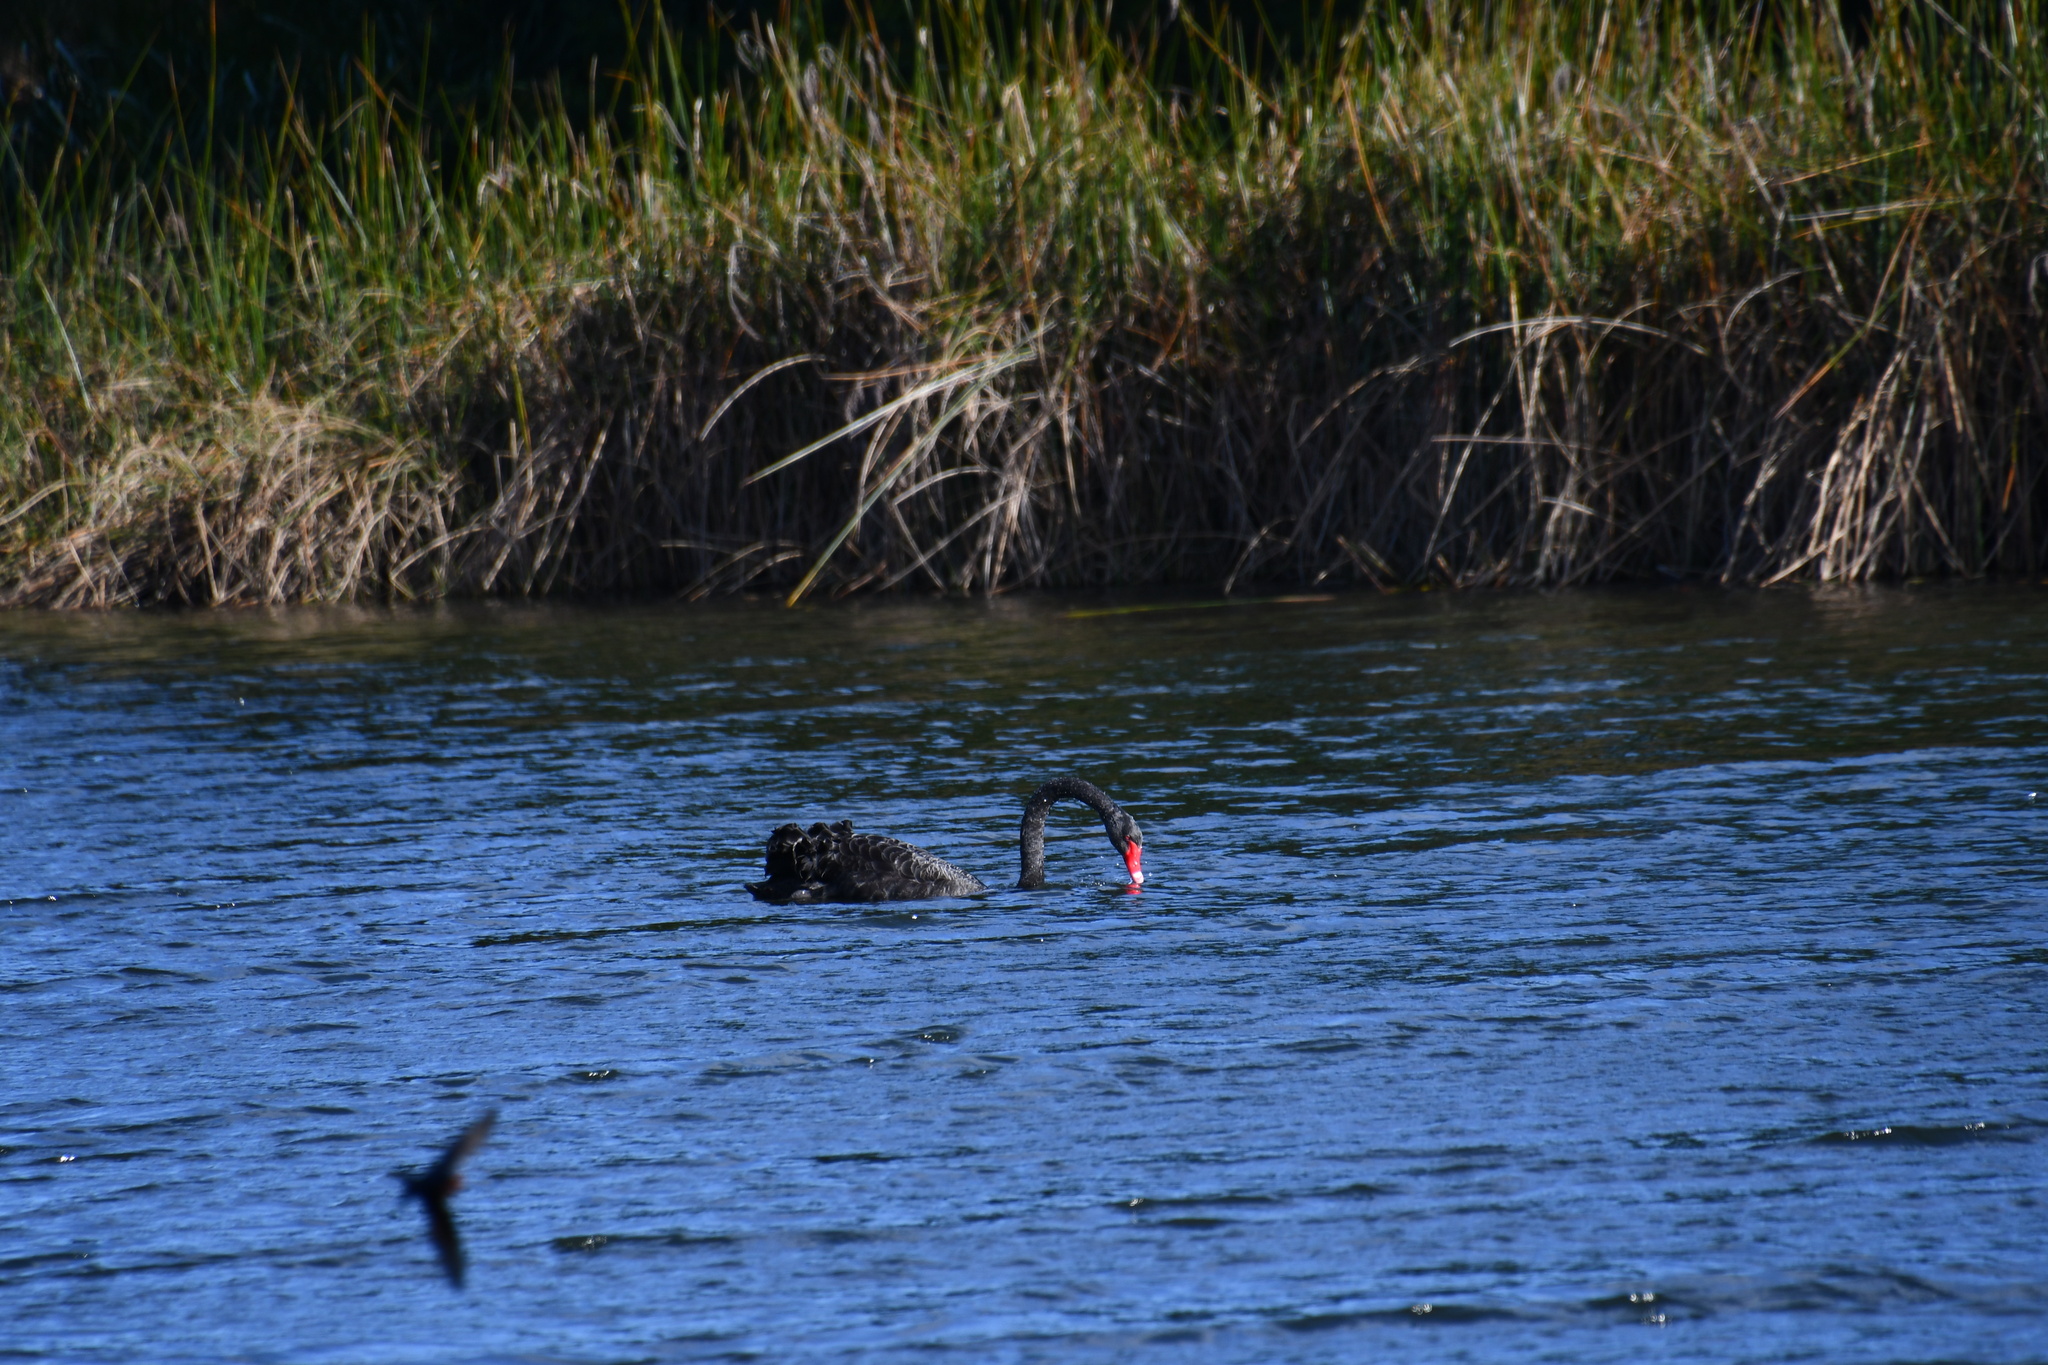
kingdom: Animalia
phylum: Chordata
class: Aves
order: Anseriformes
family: Anatidae
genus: Cygnus
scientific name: Cygnus atratus
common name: Black swan
